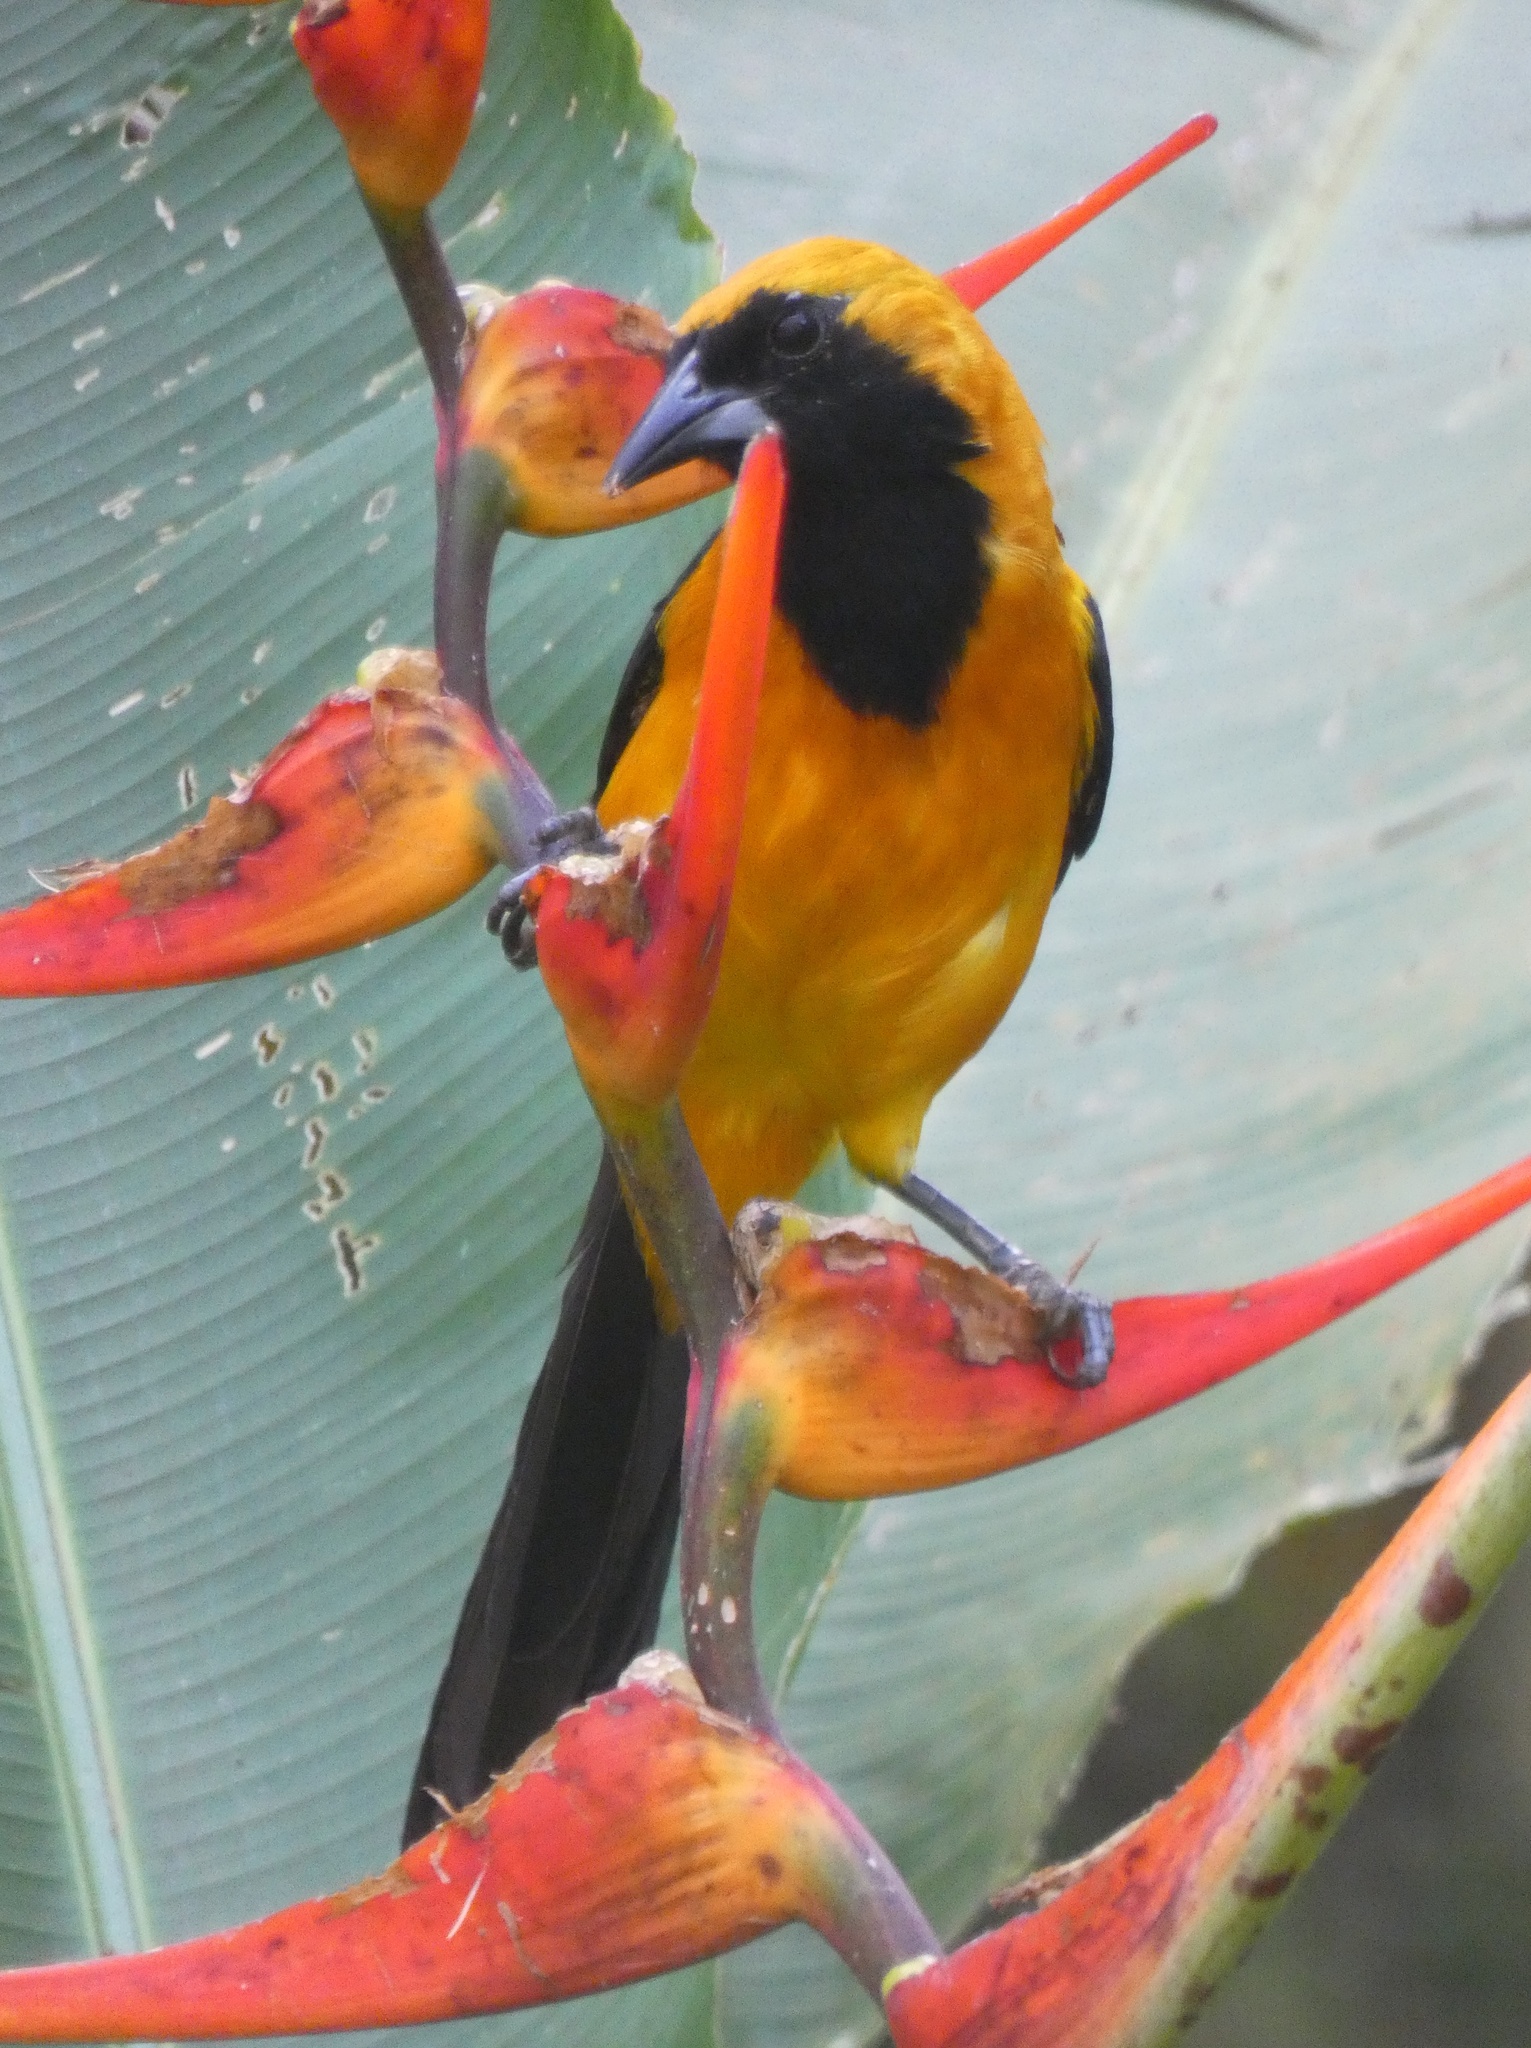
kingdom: Animalia
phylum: Chordata
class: Aves
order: Passeriformes
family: Icteridae
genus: Icterus
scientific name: Icterus chrysater
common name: Yellow-backed oriole
